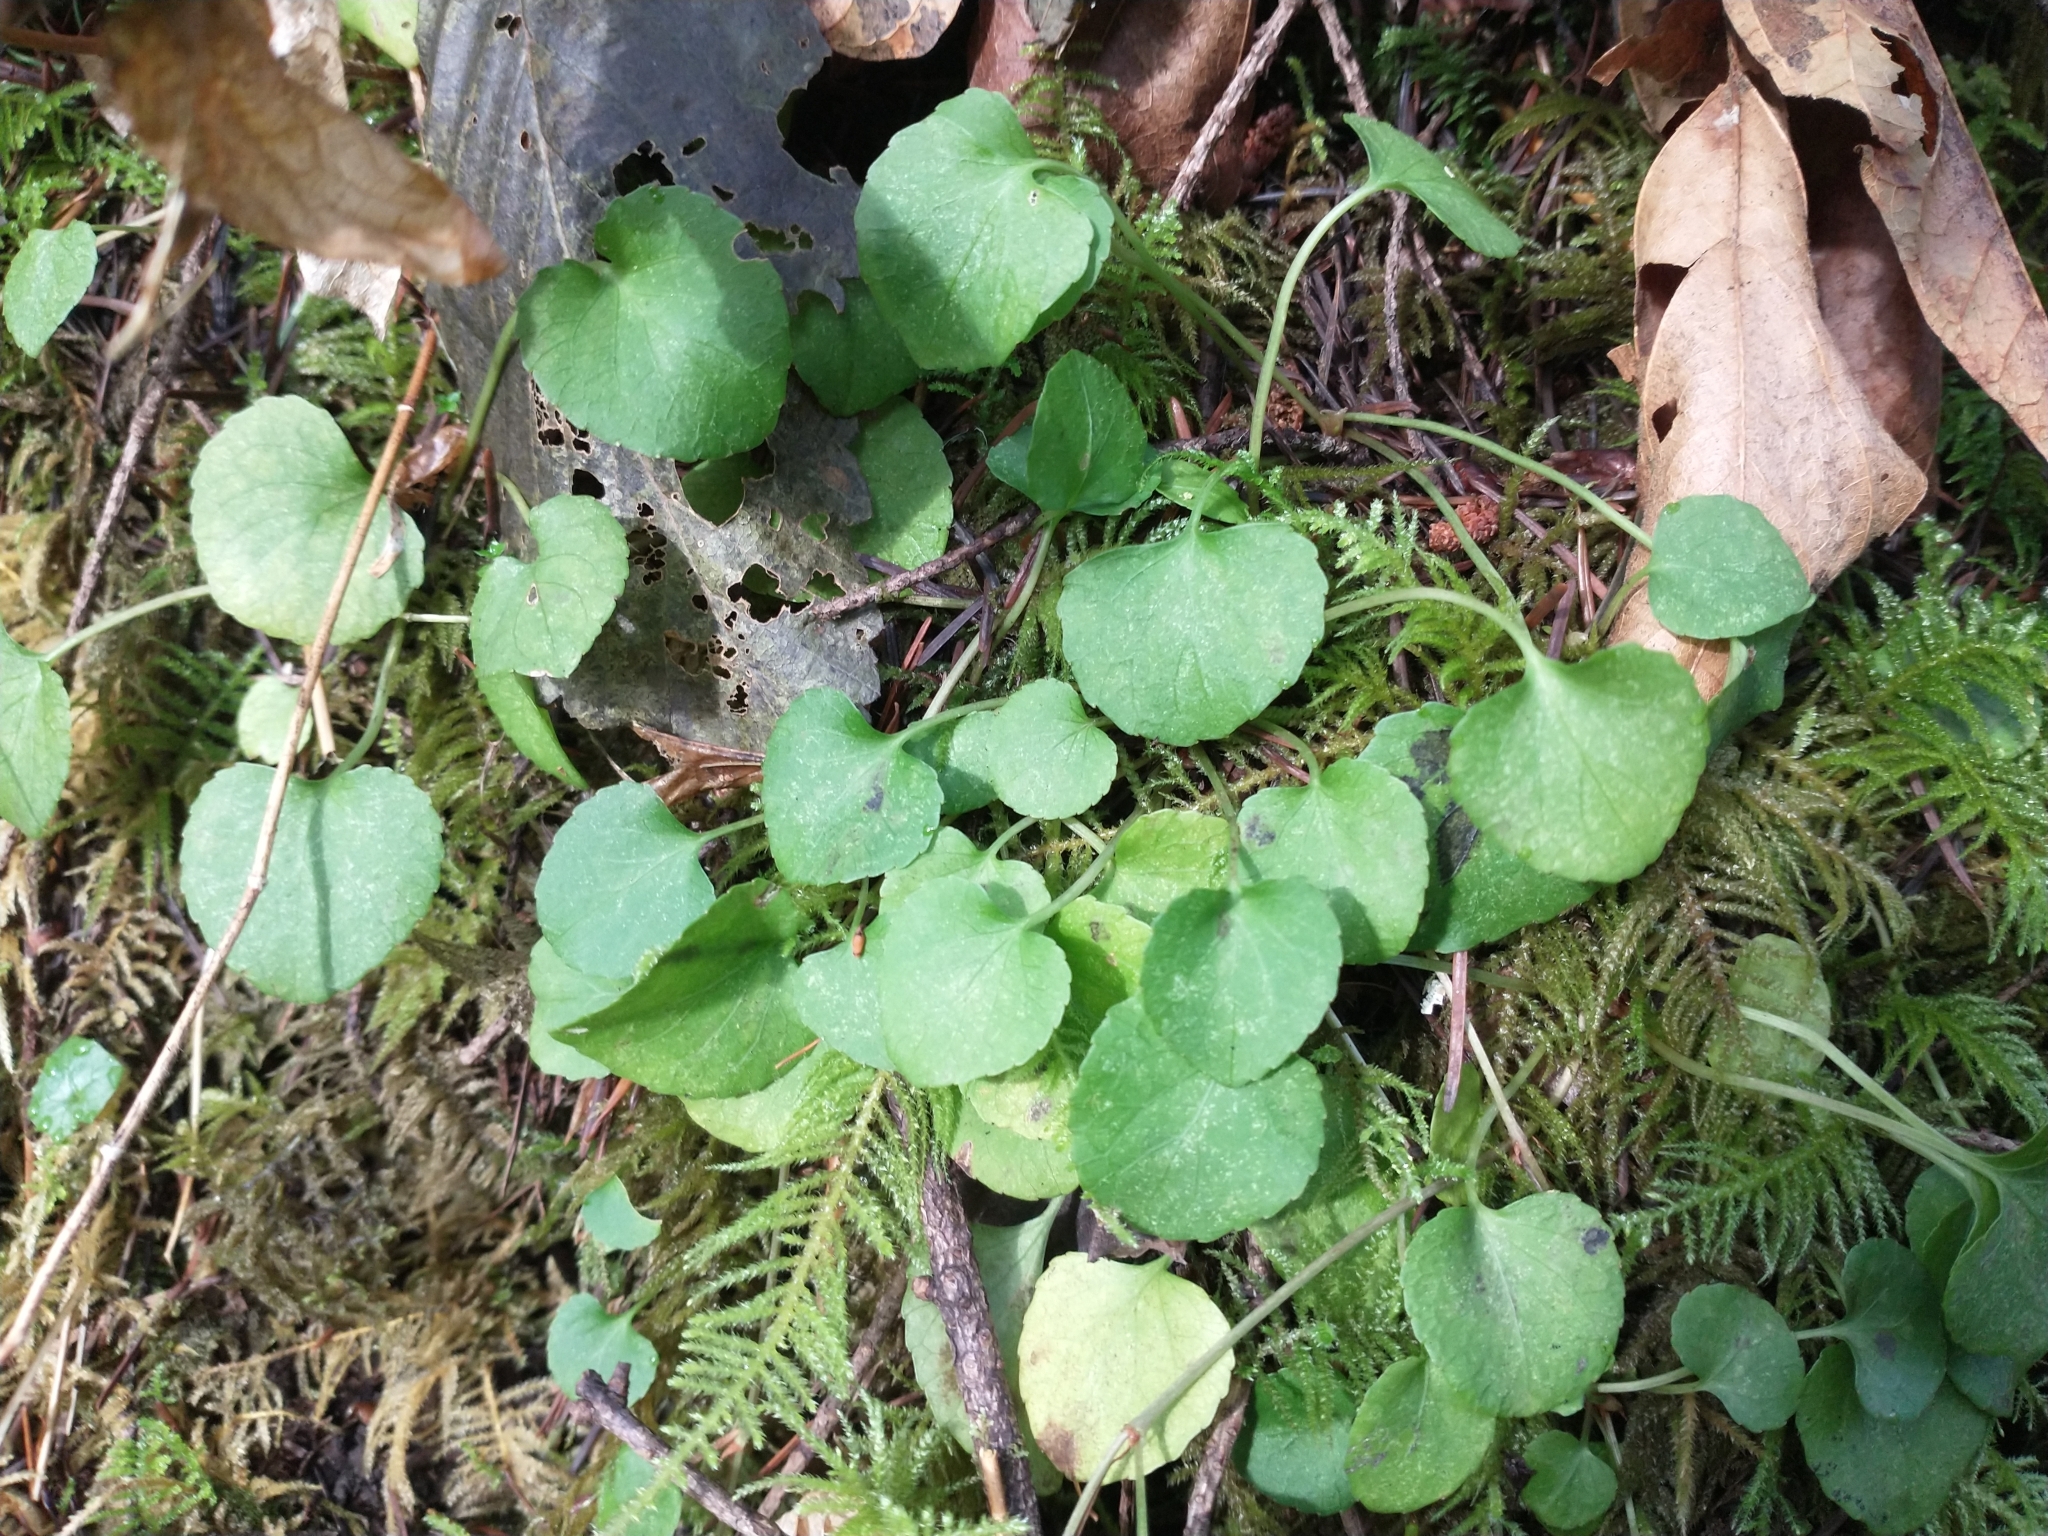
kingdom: Plantae
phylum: Tracheophyta
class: Magnoliopsida
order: Malpighiales
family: Violaceae
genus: Viola
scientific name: Viola sempervirens
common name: Evergreen violet
